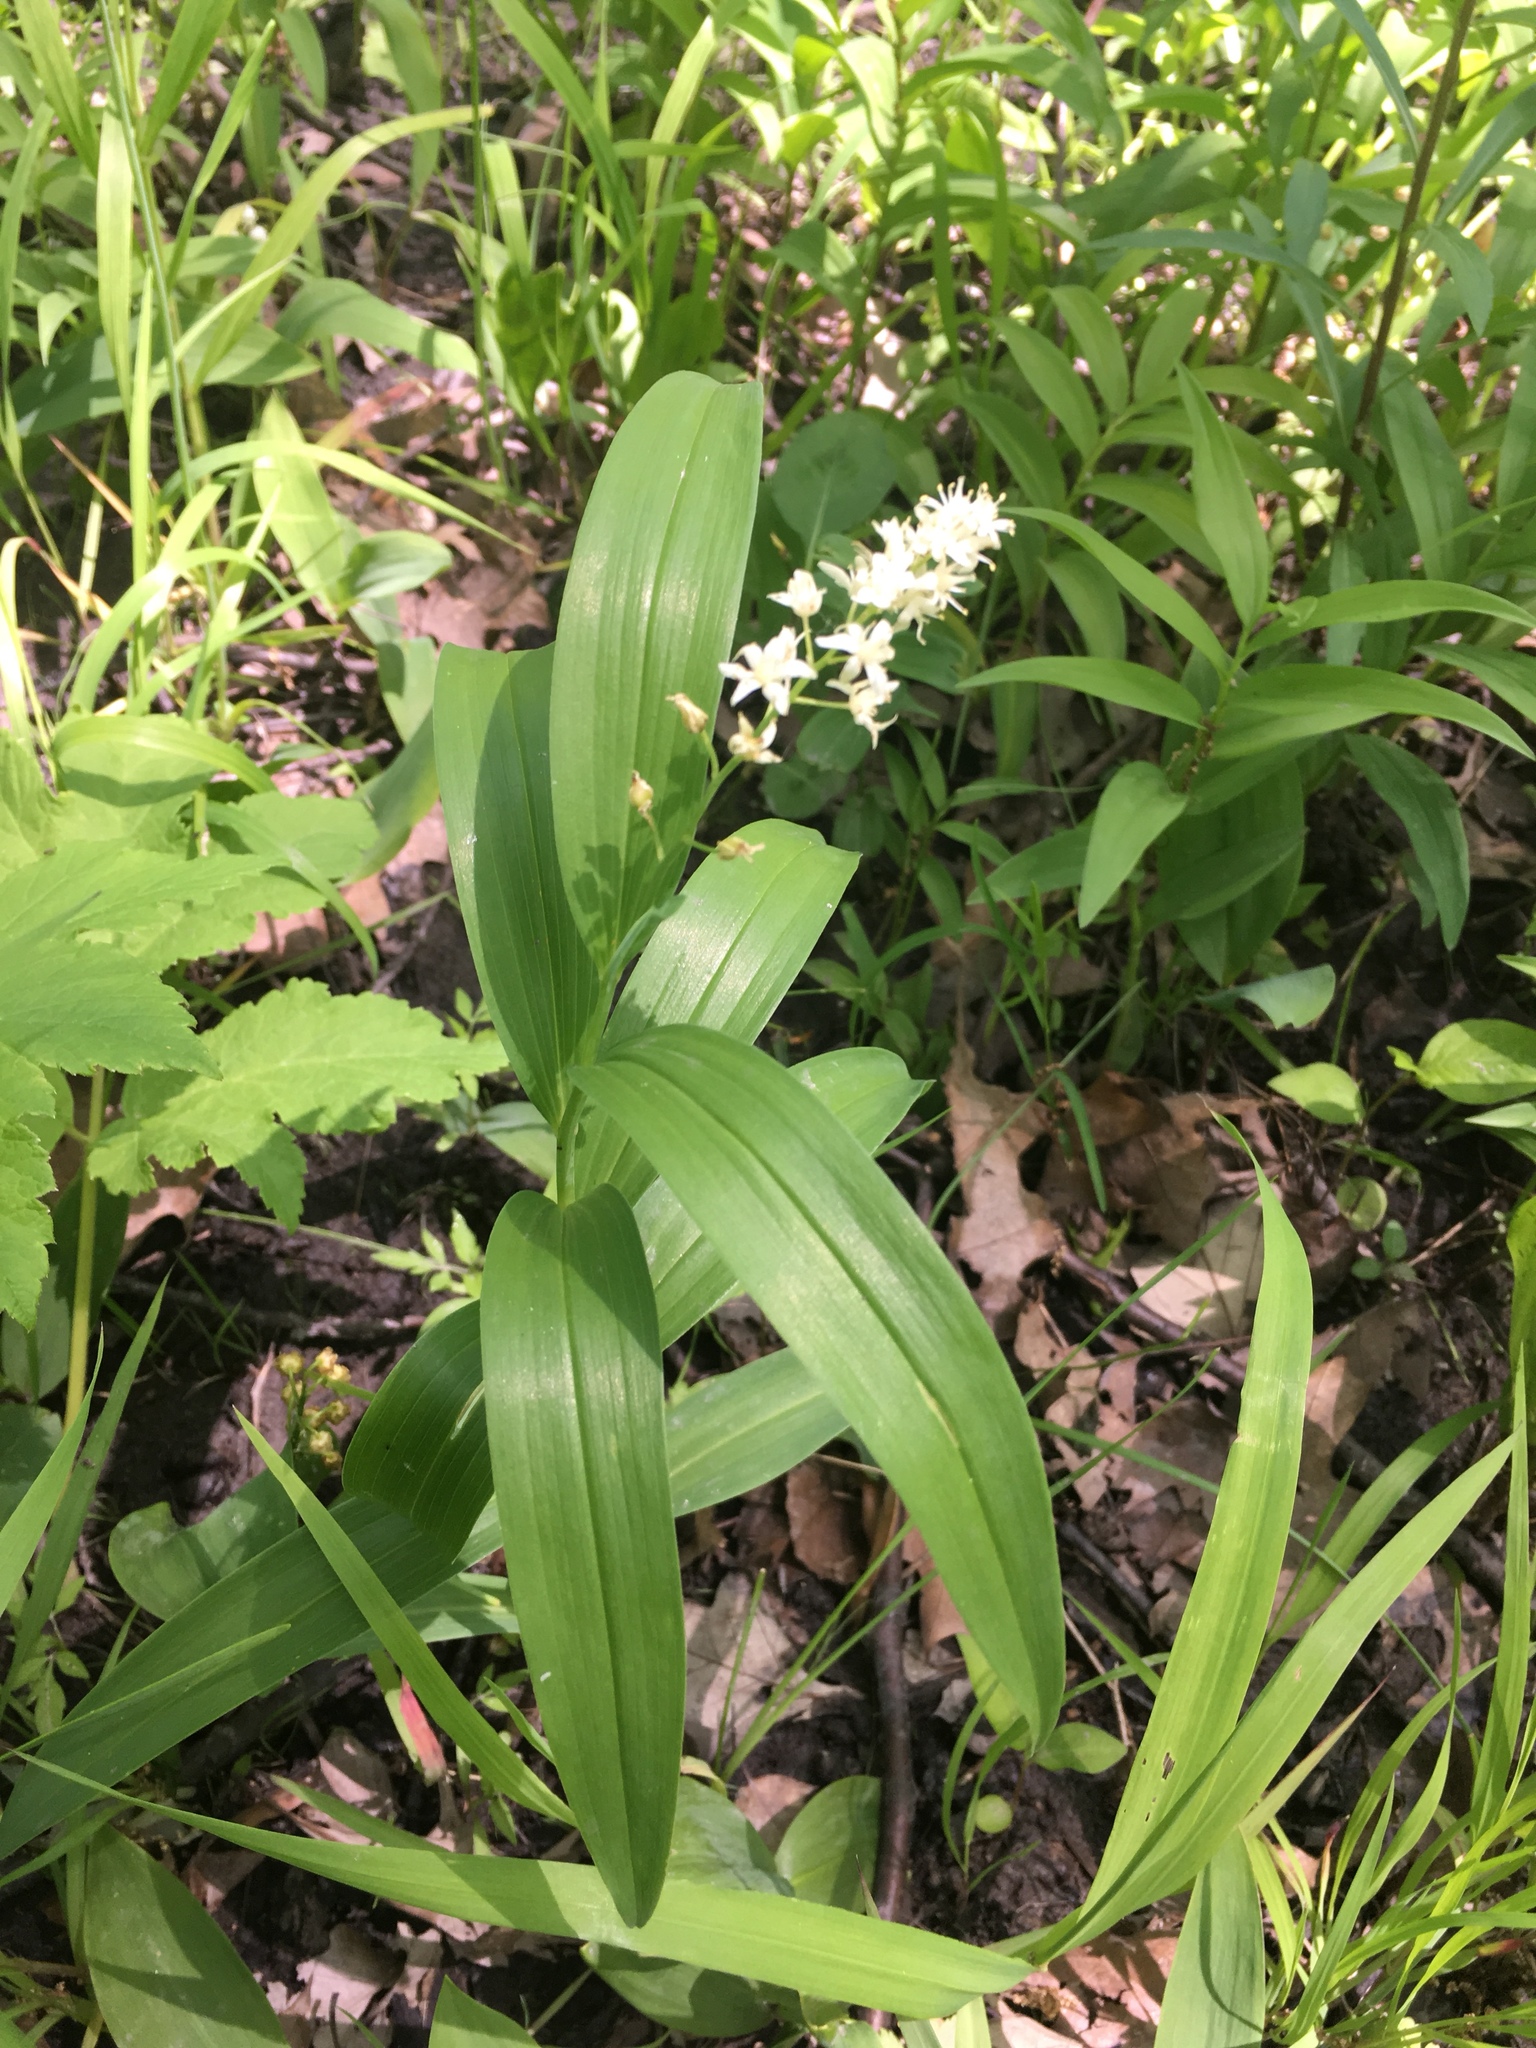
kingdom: Plantae
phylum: Tracheophyta
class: Liliopsida
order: Asparagales
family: Asparagaceae
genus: Maianthemum
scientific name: Maianthemum stellatum
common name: Little false solomon's seal
